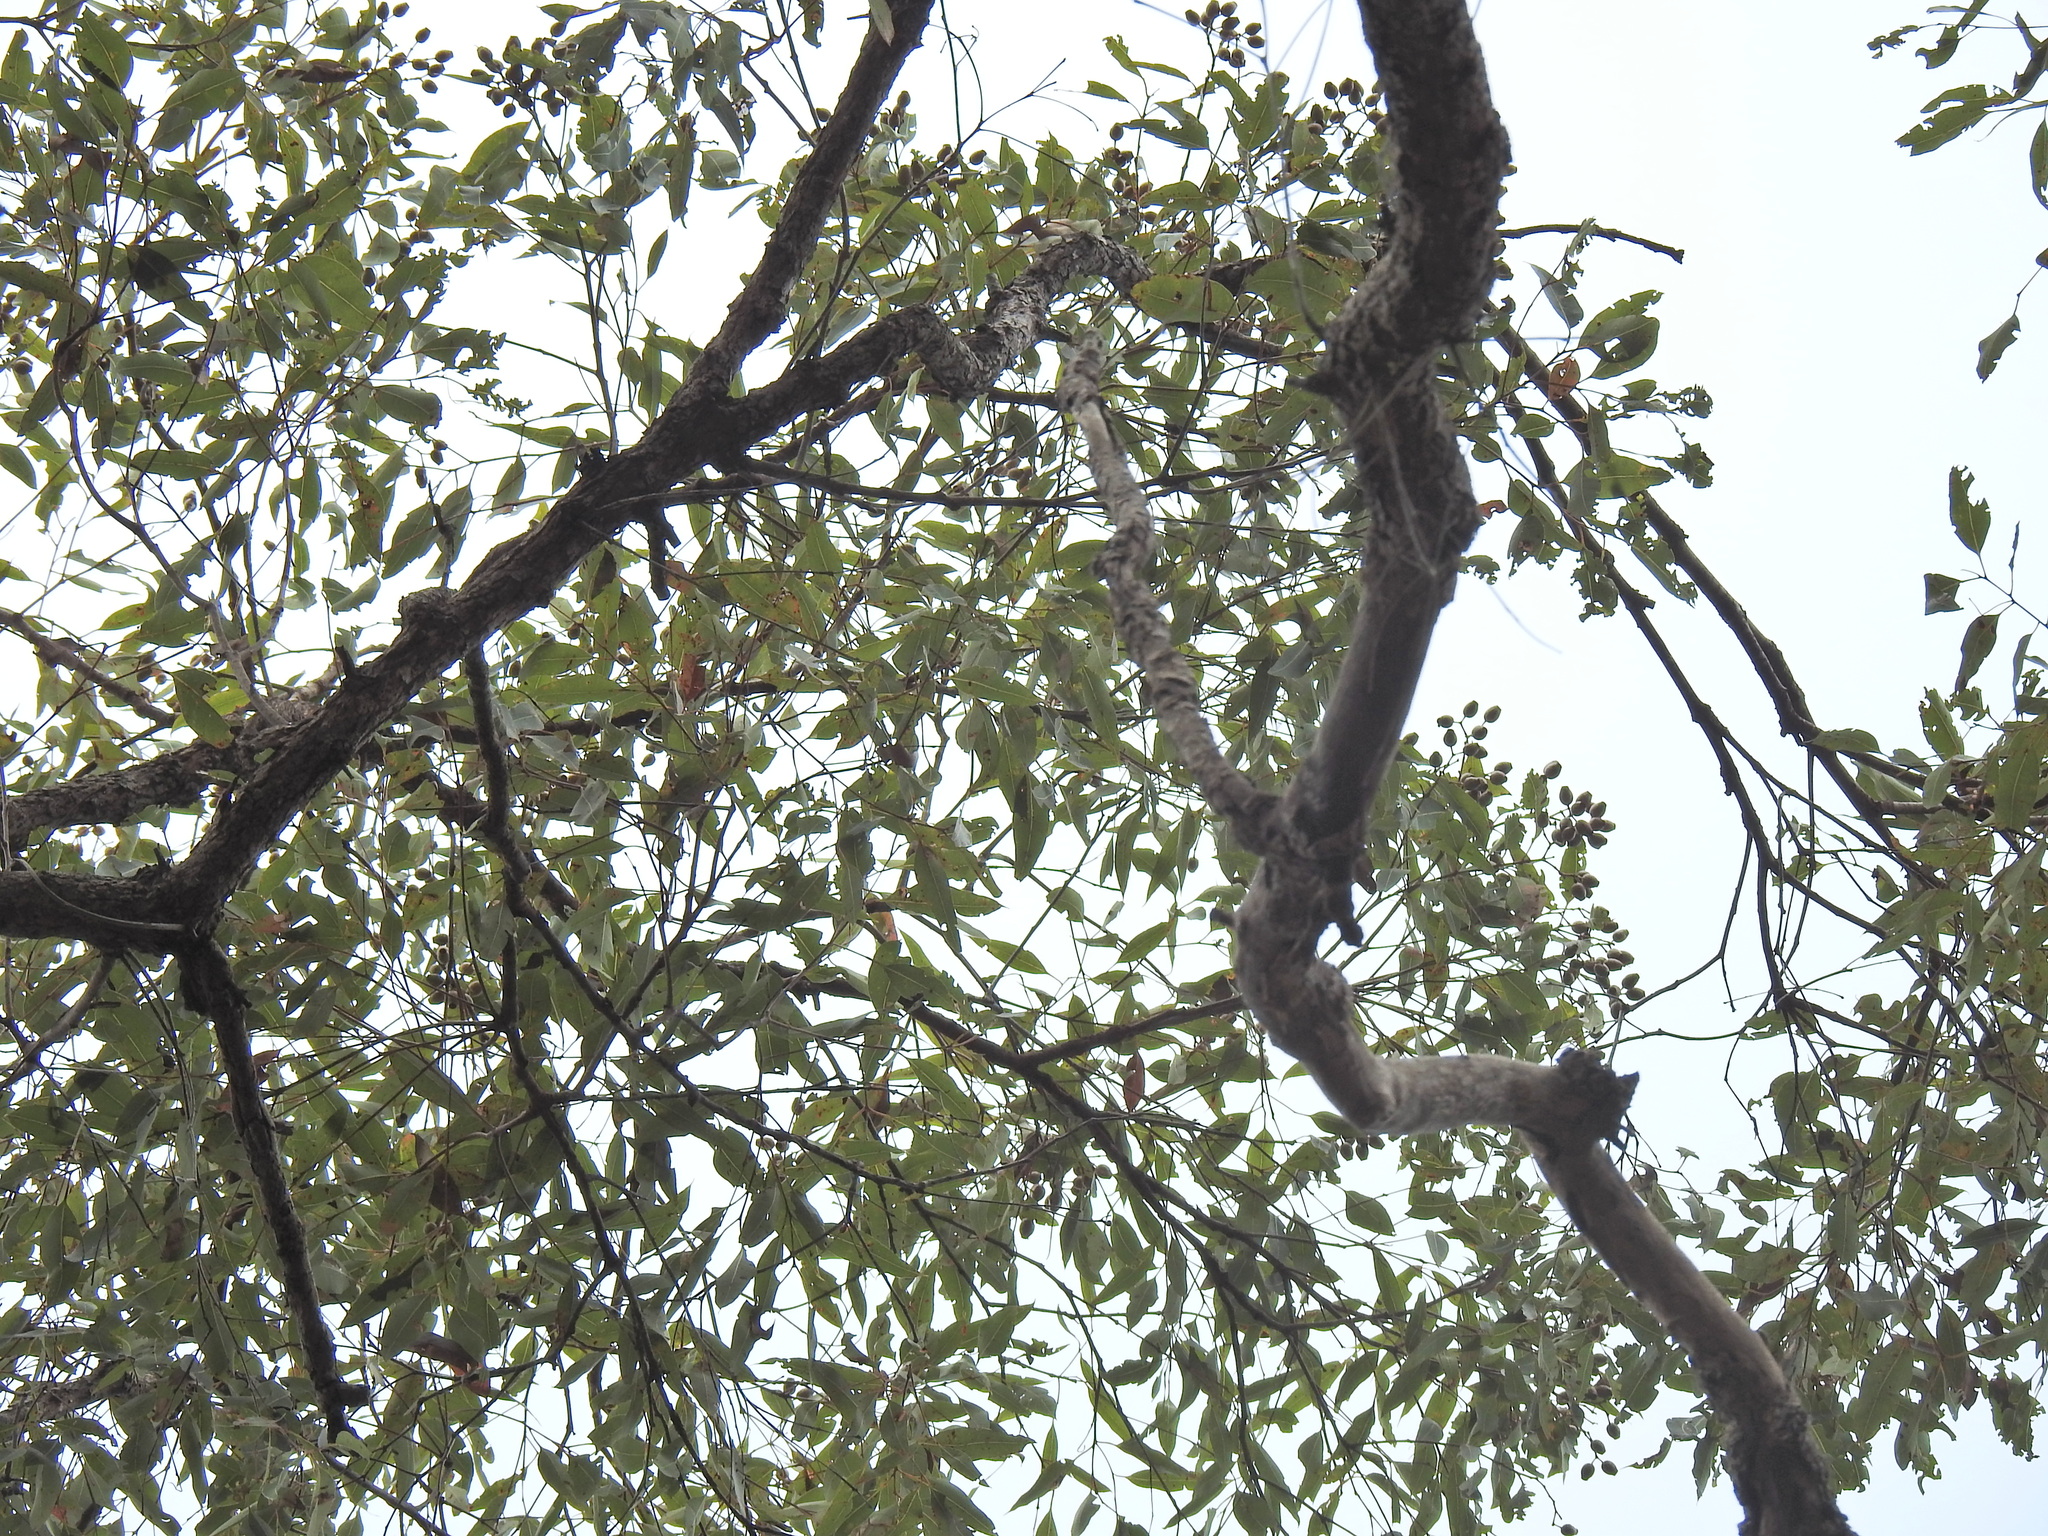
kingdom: Plantae
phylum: Tracheophyta
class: Magnoliopsida
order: Myrtales
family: Myrtaceae
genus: Corymbia
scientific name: Corymbia intermedia
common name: Pink-bloodwood
